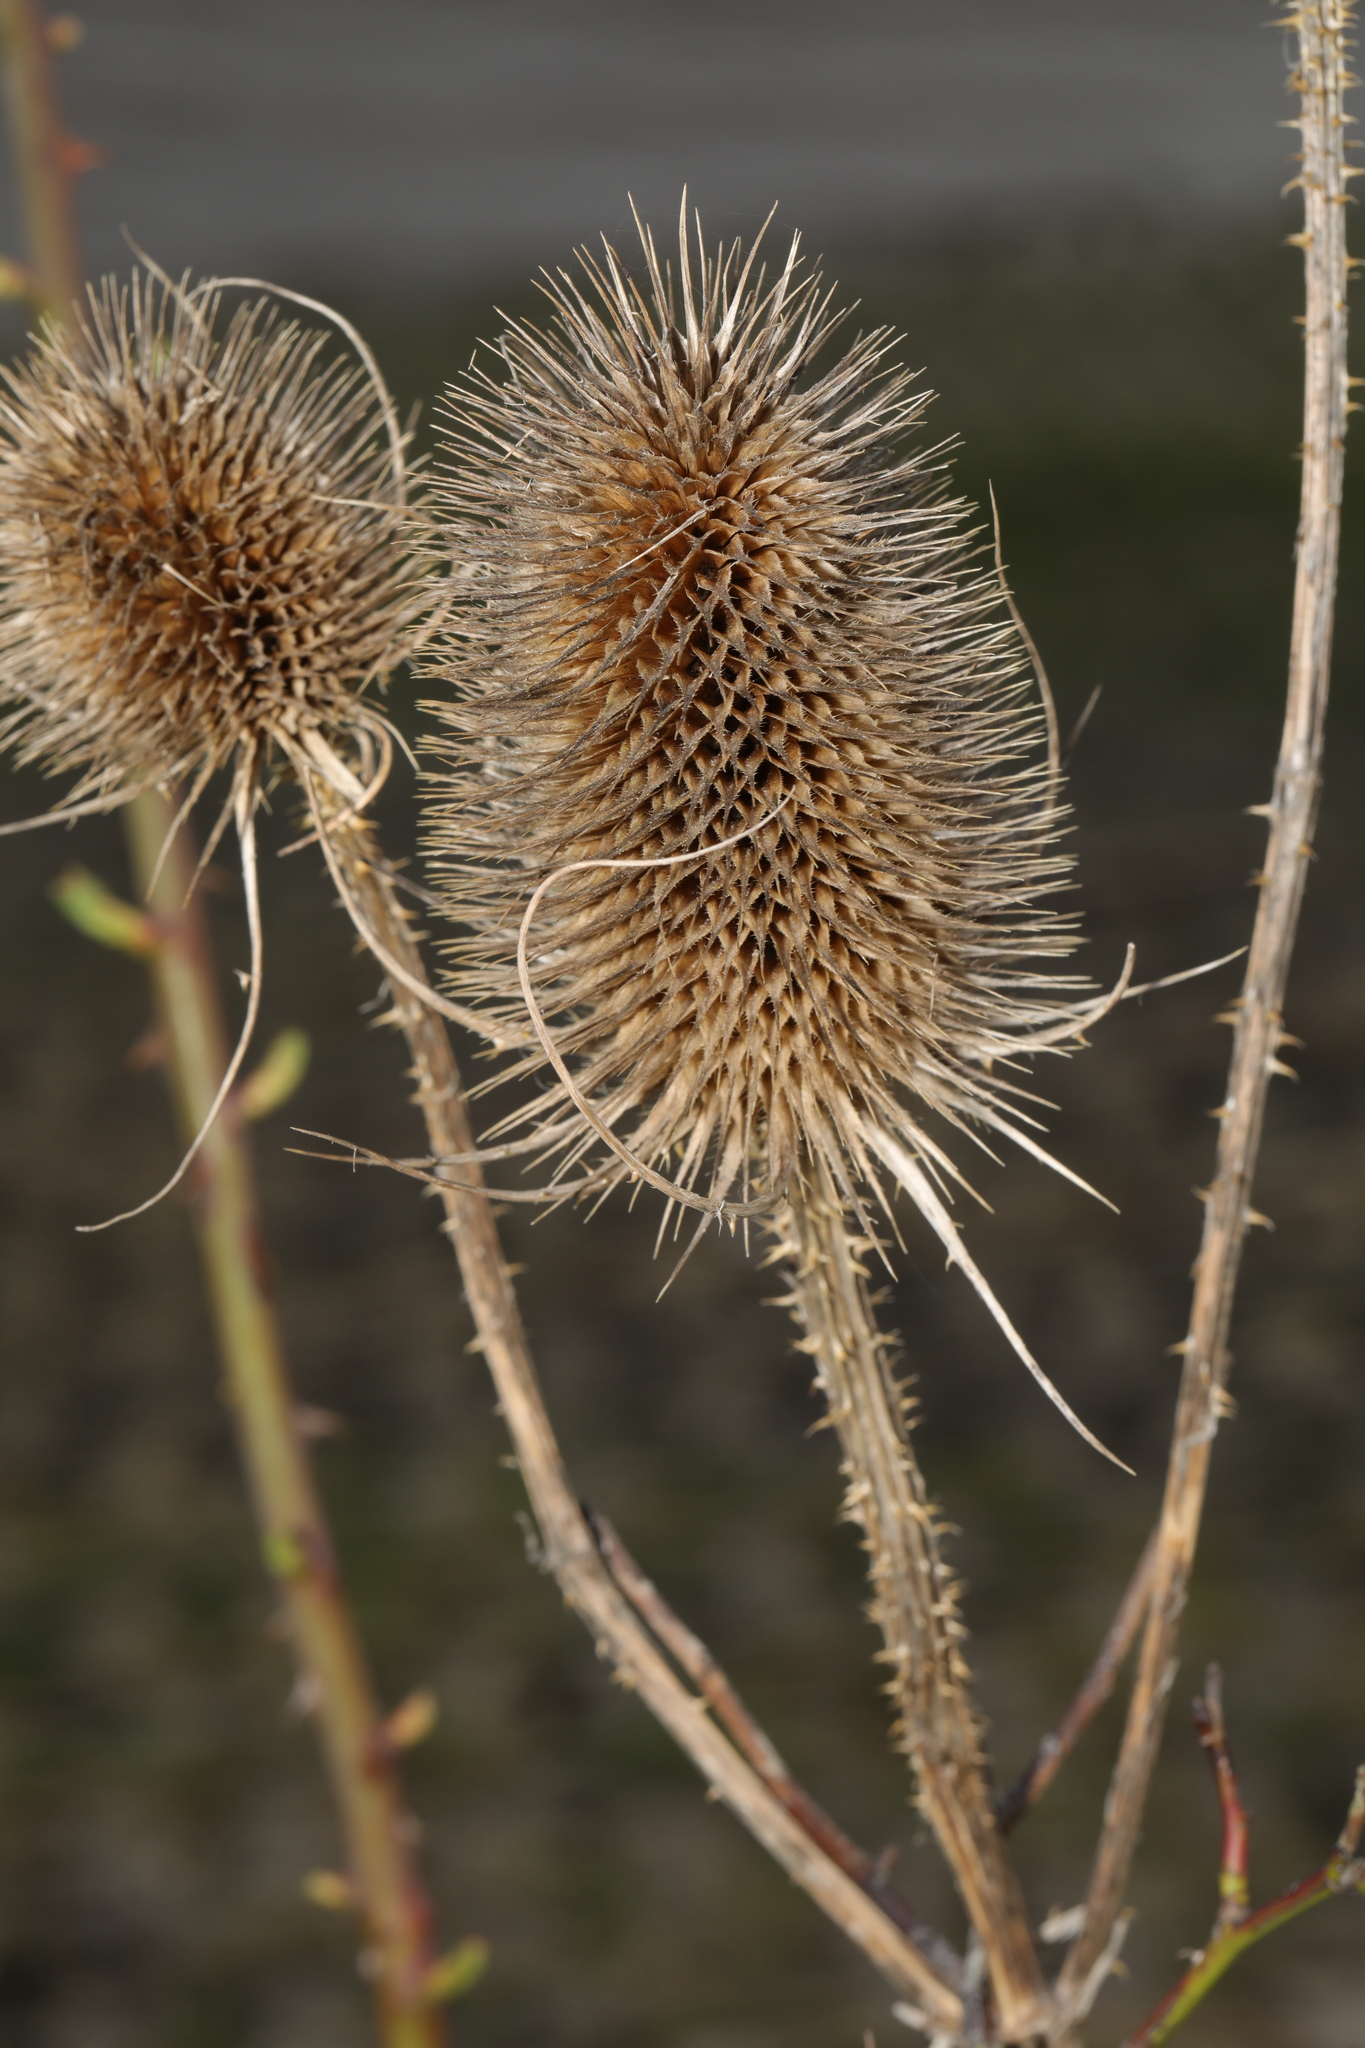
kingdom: Plantae
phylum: Tracheophyta
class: Magnoliopsida
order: Dipsacales
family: Caprifoliaceae
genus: Dipsacus
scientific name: Dipsacus fullonum
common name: Teasel
